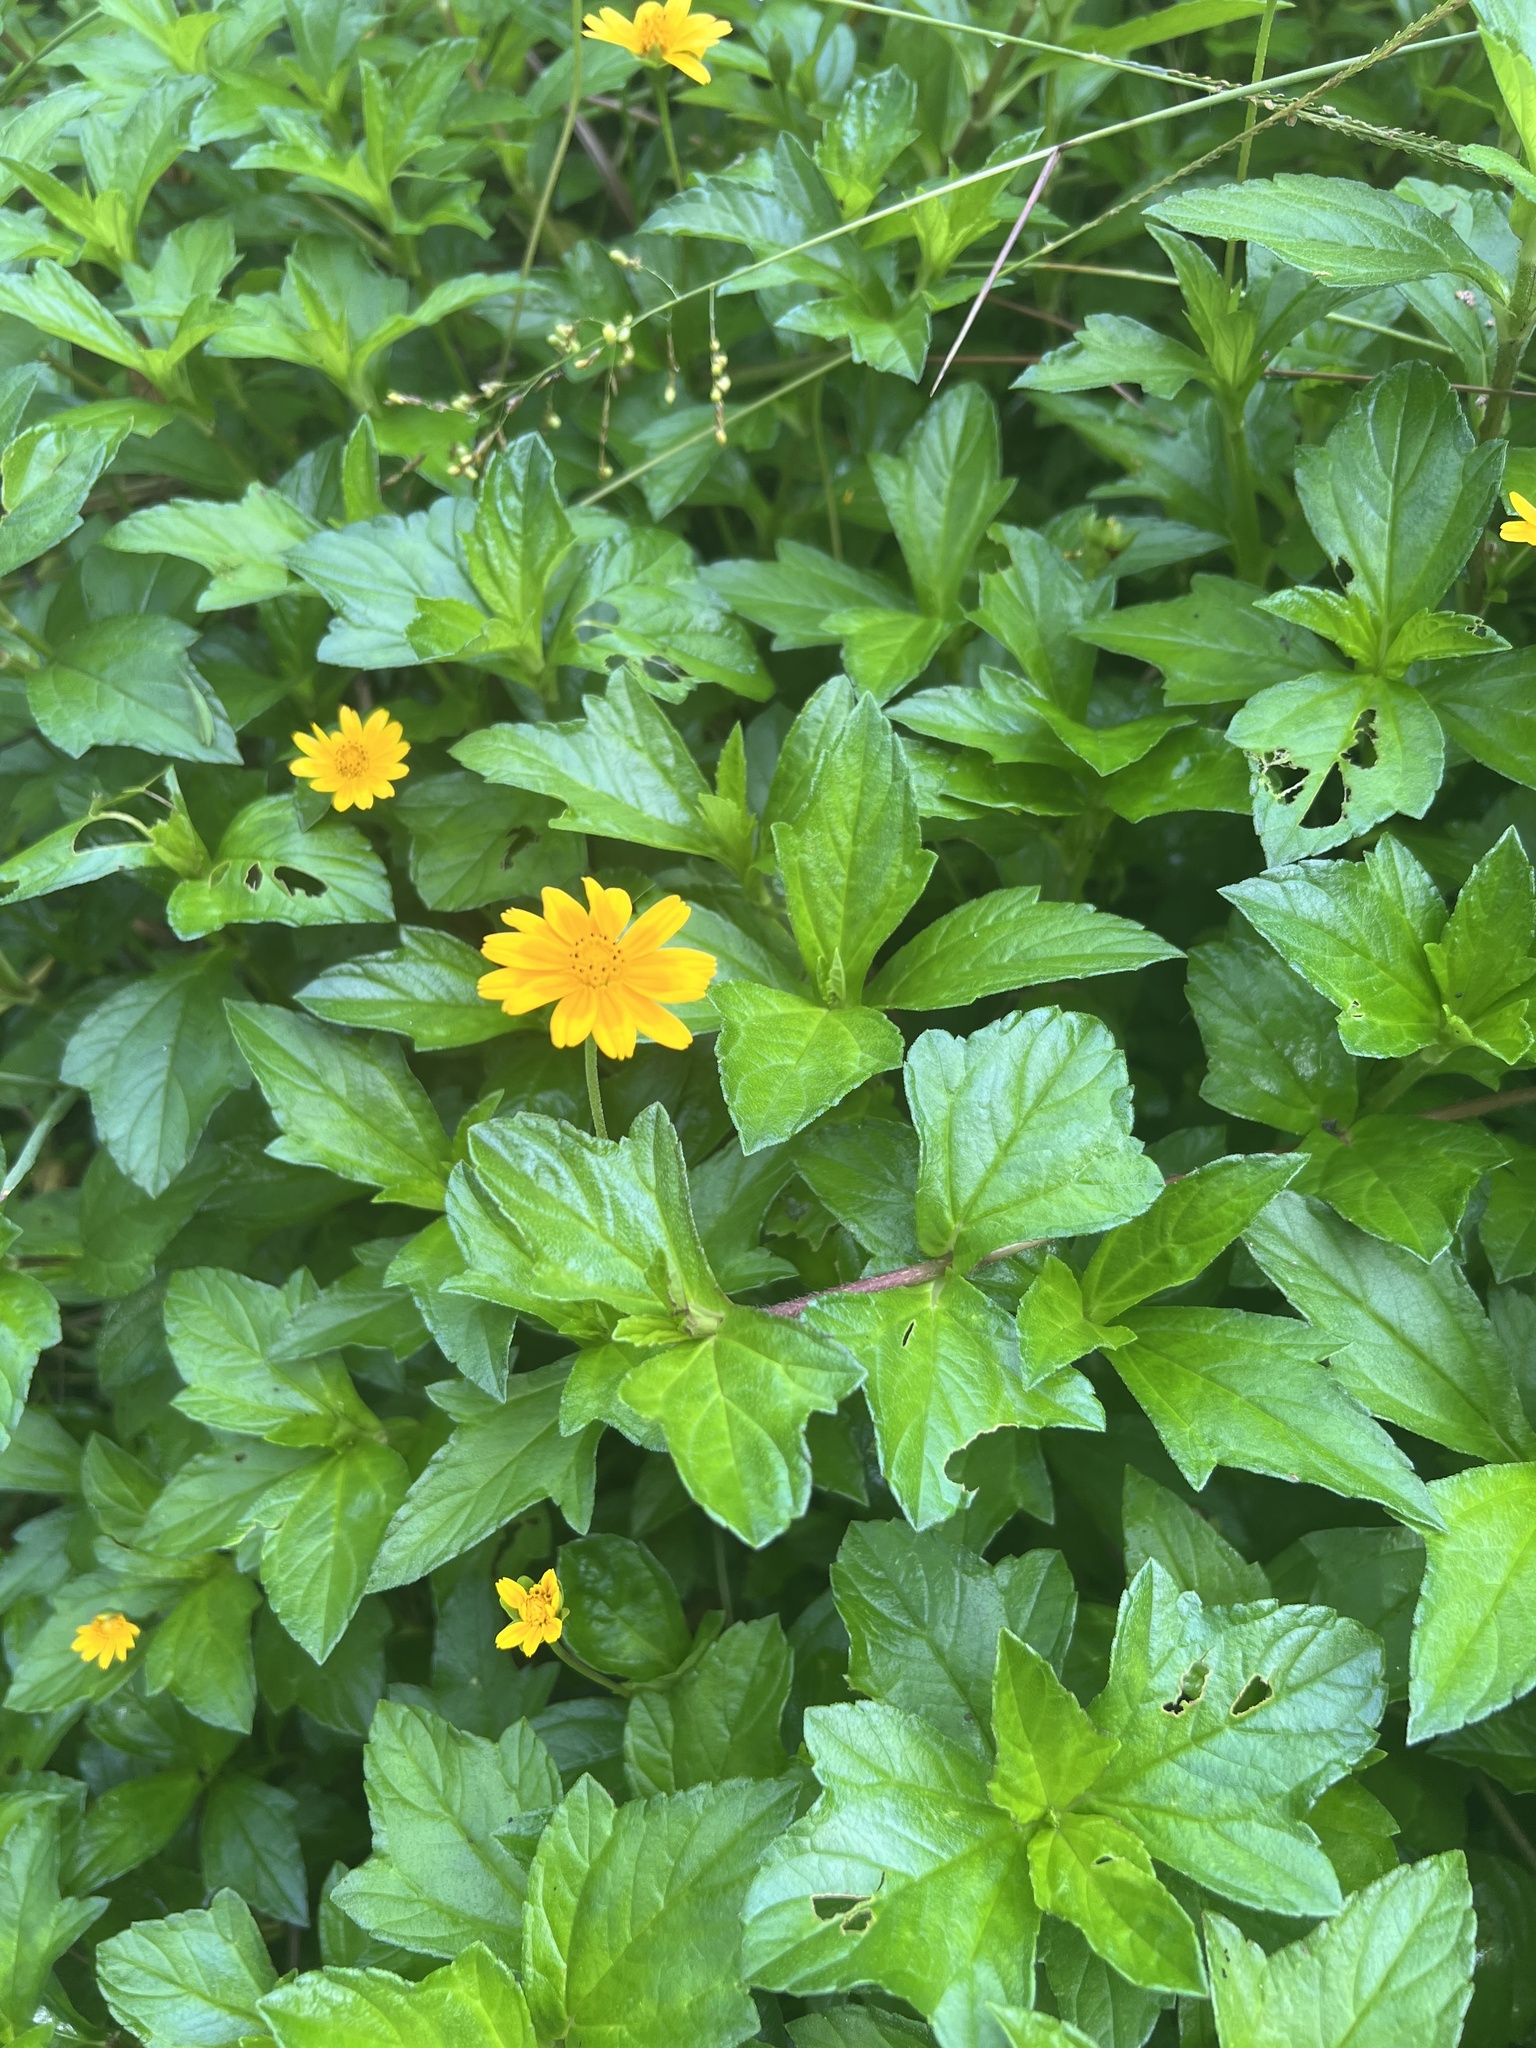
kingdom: Plantae
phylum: Tracheophyta
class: Magnoliopsida
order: Asterales
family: Asteraceae
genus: Sphagneticola
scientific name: Sphagneticola trilobata
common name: Bay biscayne creeping-oxeye
